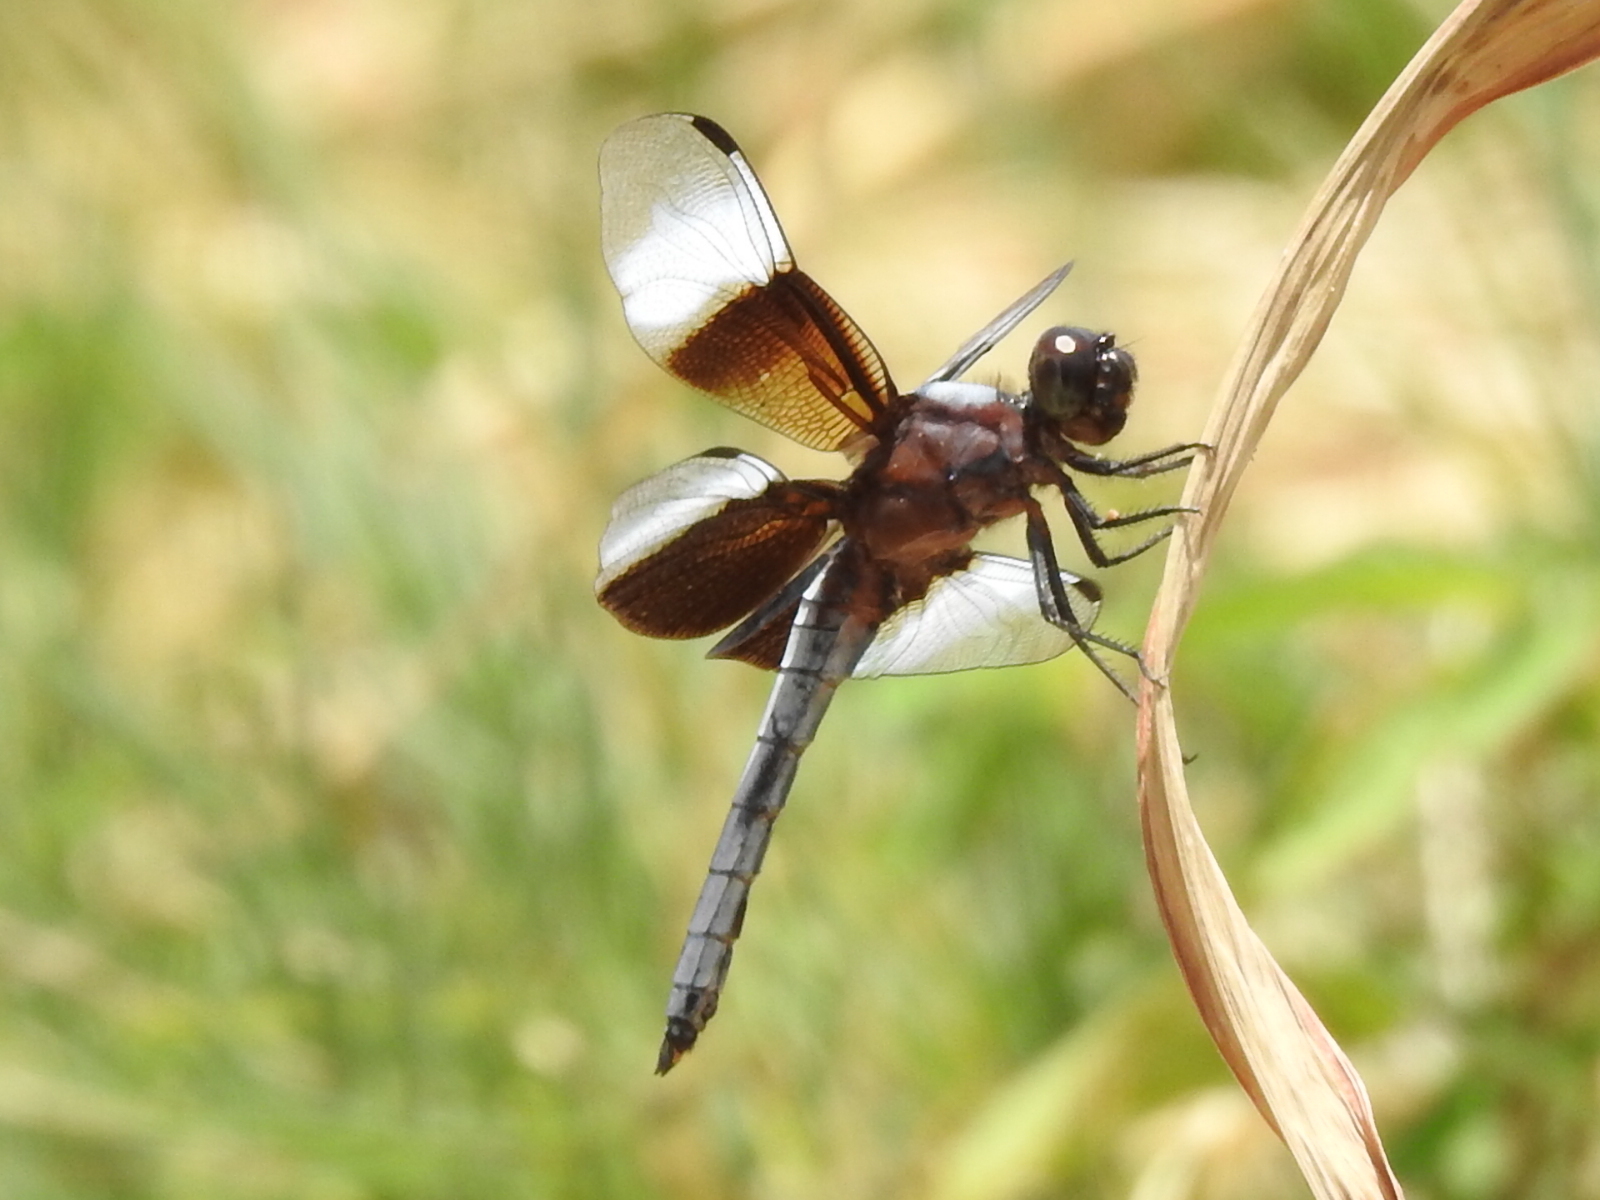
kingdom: Animalia
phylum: Arthropoda
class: Insecta
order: Odonata
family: Libellulidae
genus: Libellula
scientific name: Libellula luctuosa
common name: Widow skimmer
